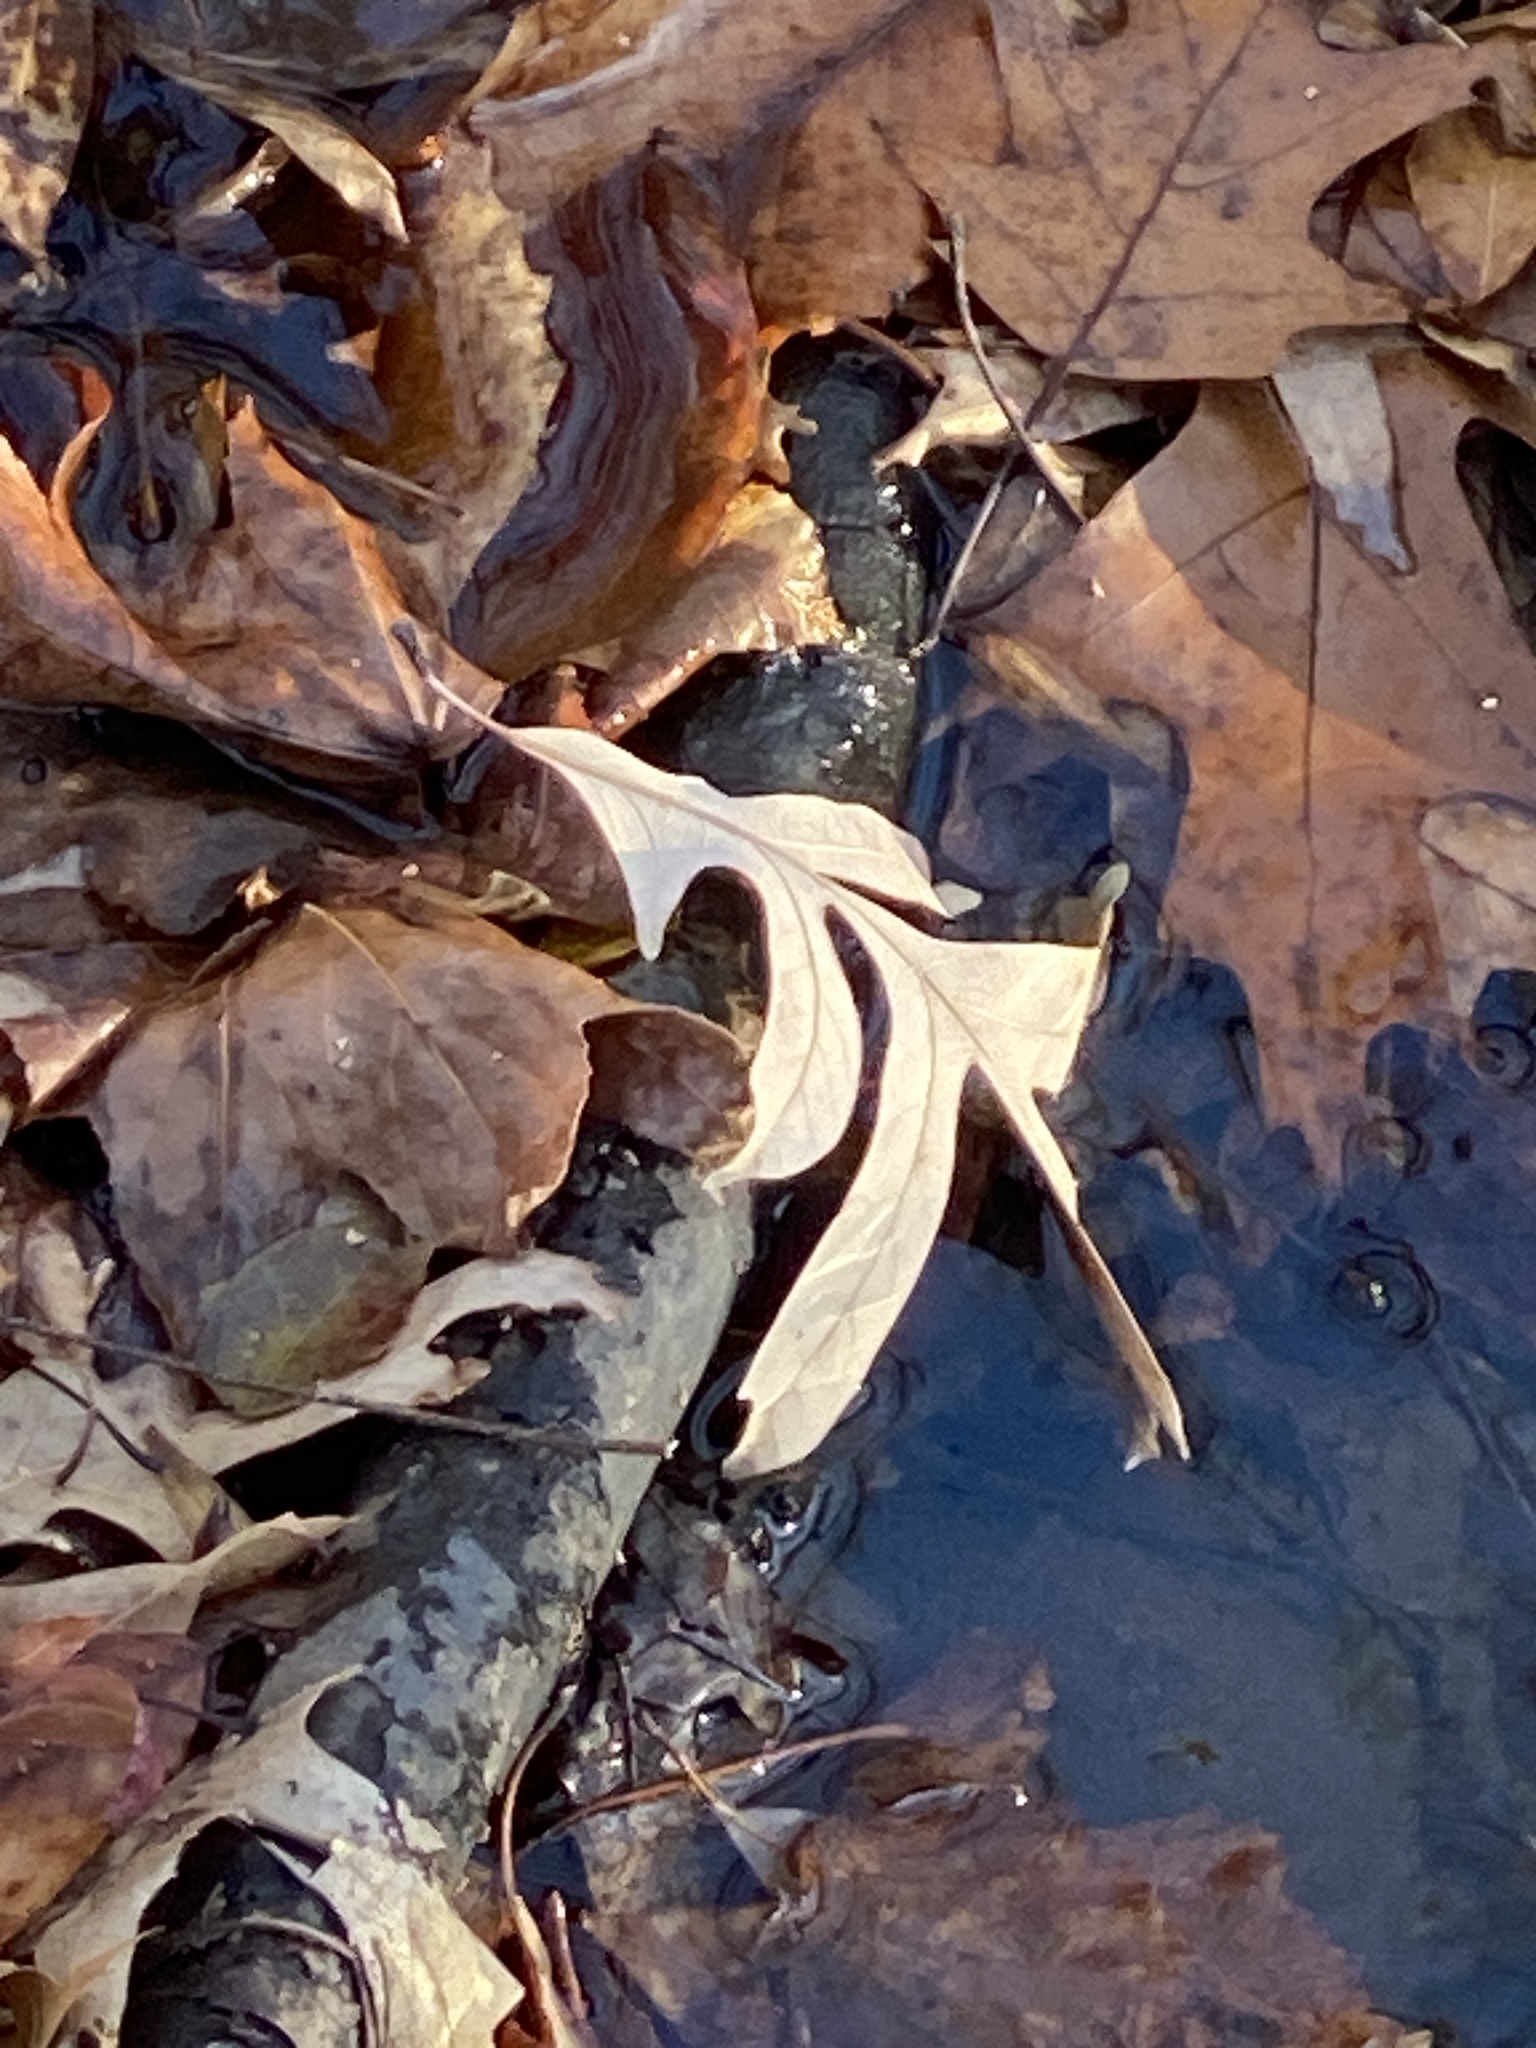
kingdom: Plantae
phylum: Tracheophyta
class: Magnoliopsida
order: Fagales
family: Fagaceae
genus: Quercus
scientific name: Quercus alba
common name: White oak
